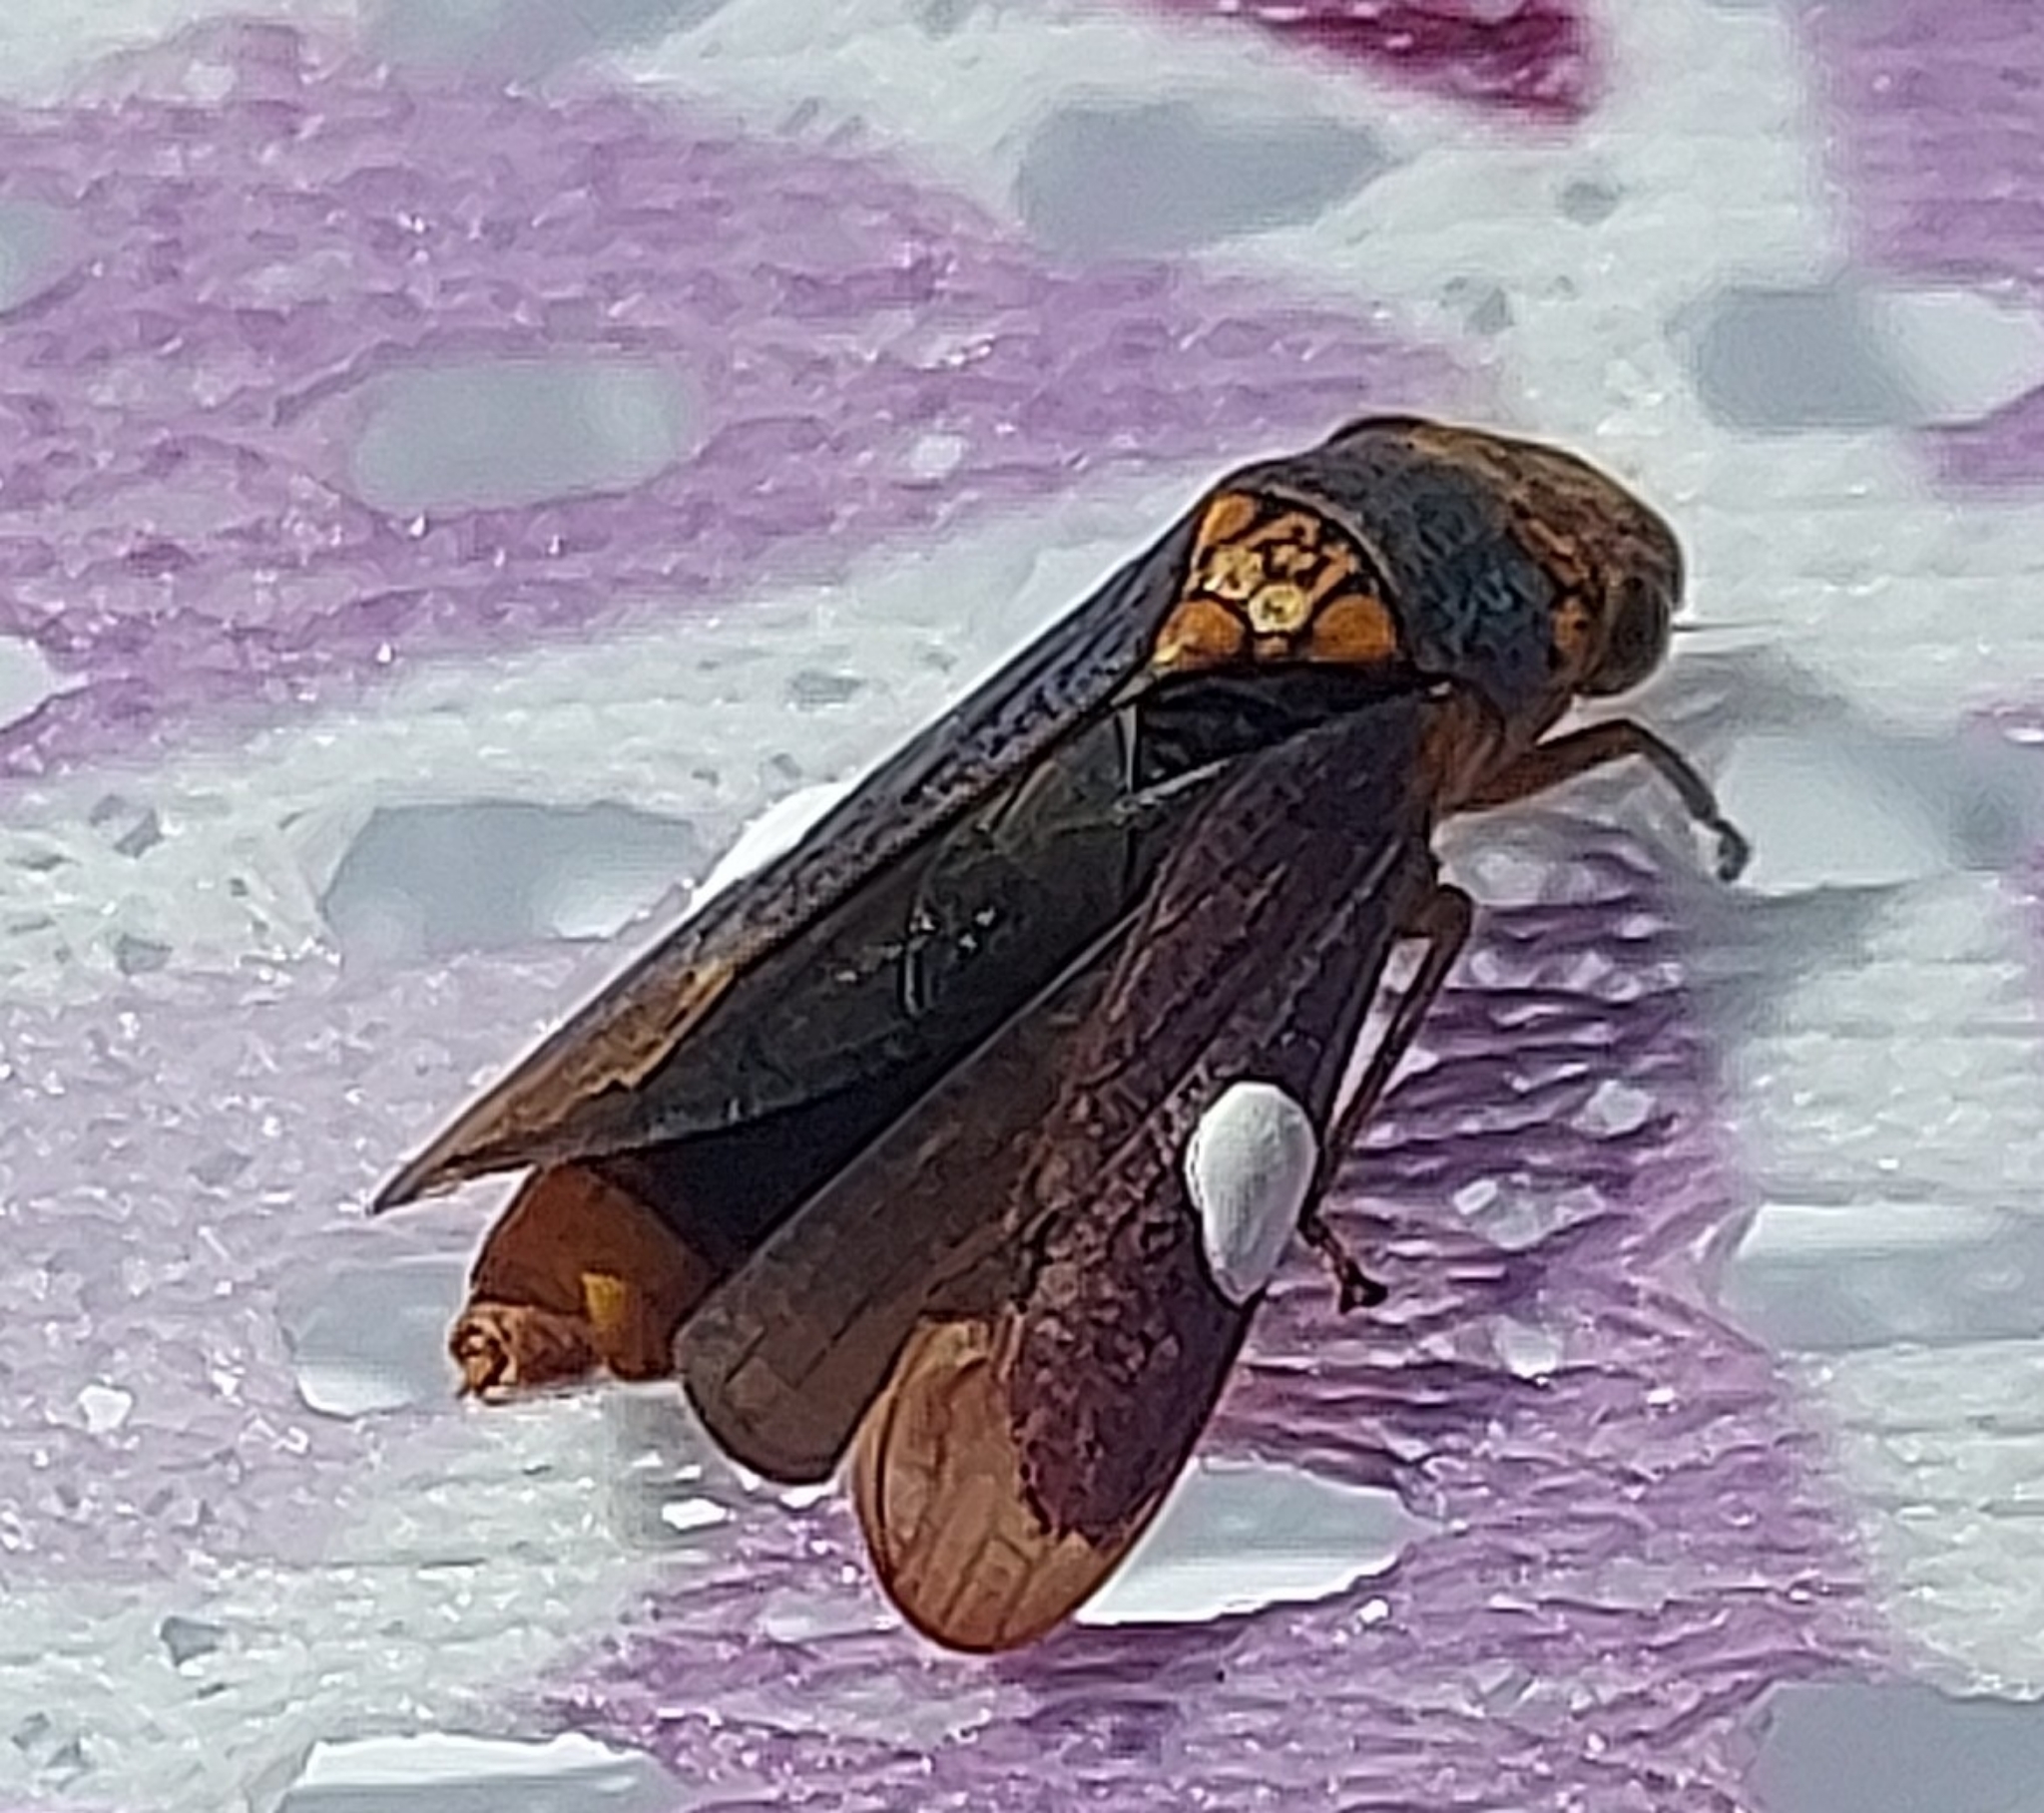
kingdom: Animalia
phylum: Arthropoda
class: Insecta
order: Hemiptera
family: Cicadellidae
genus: Oncometopia
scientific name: Oncometopia orbona
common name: Broad-headed sharpshooter
